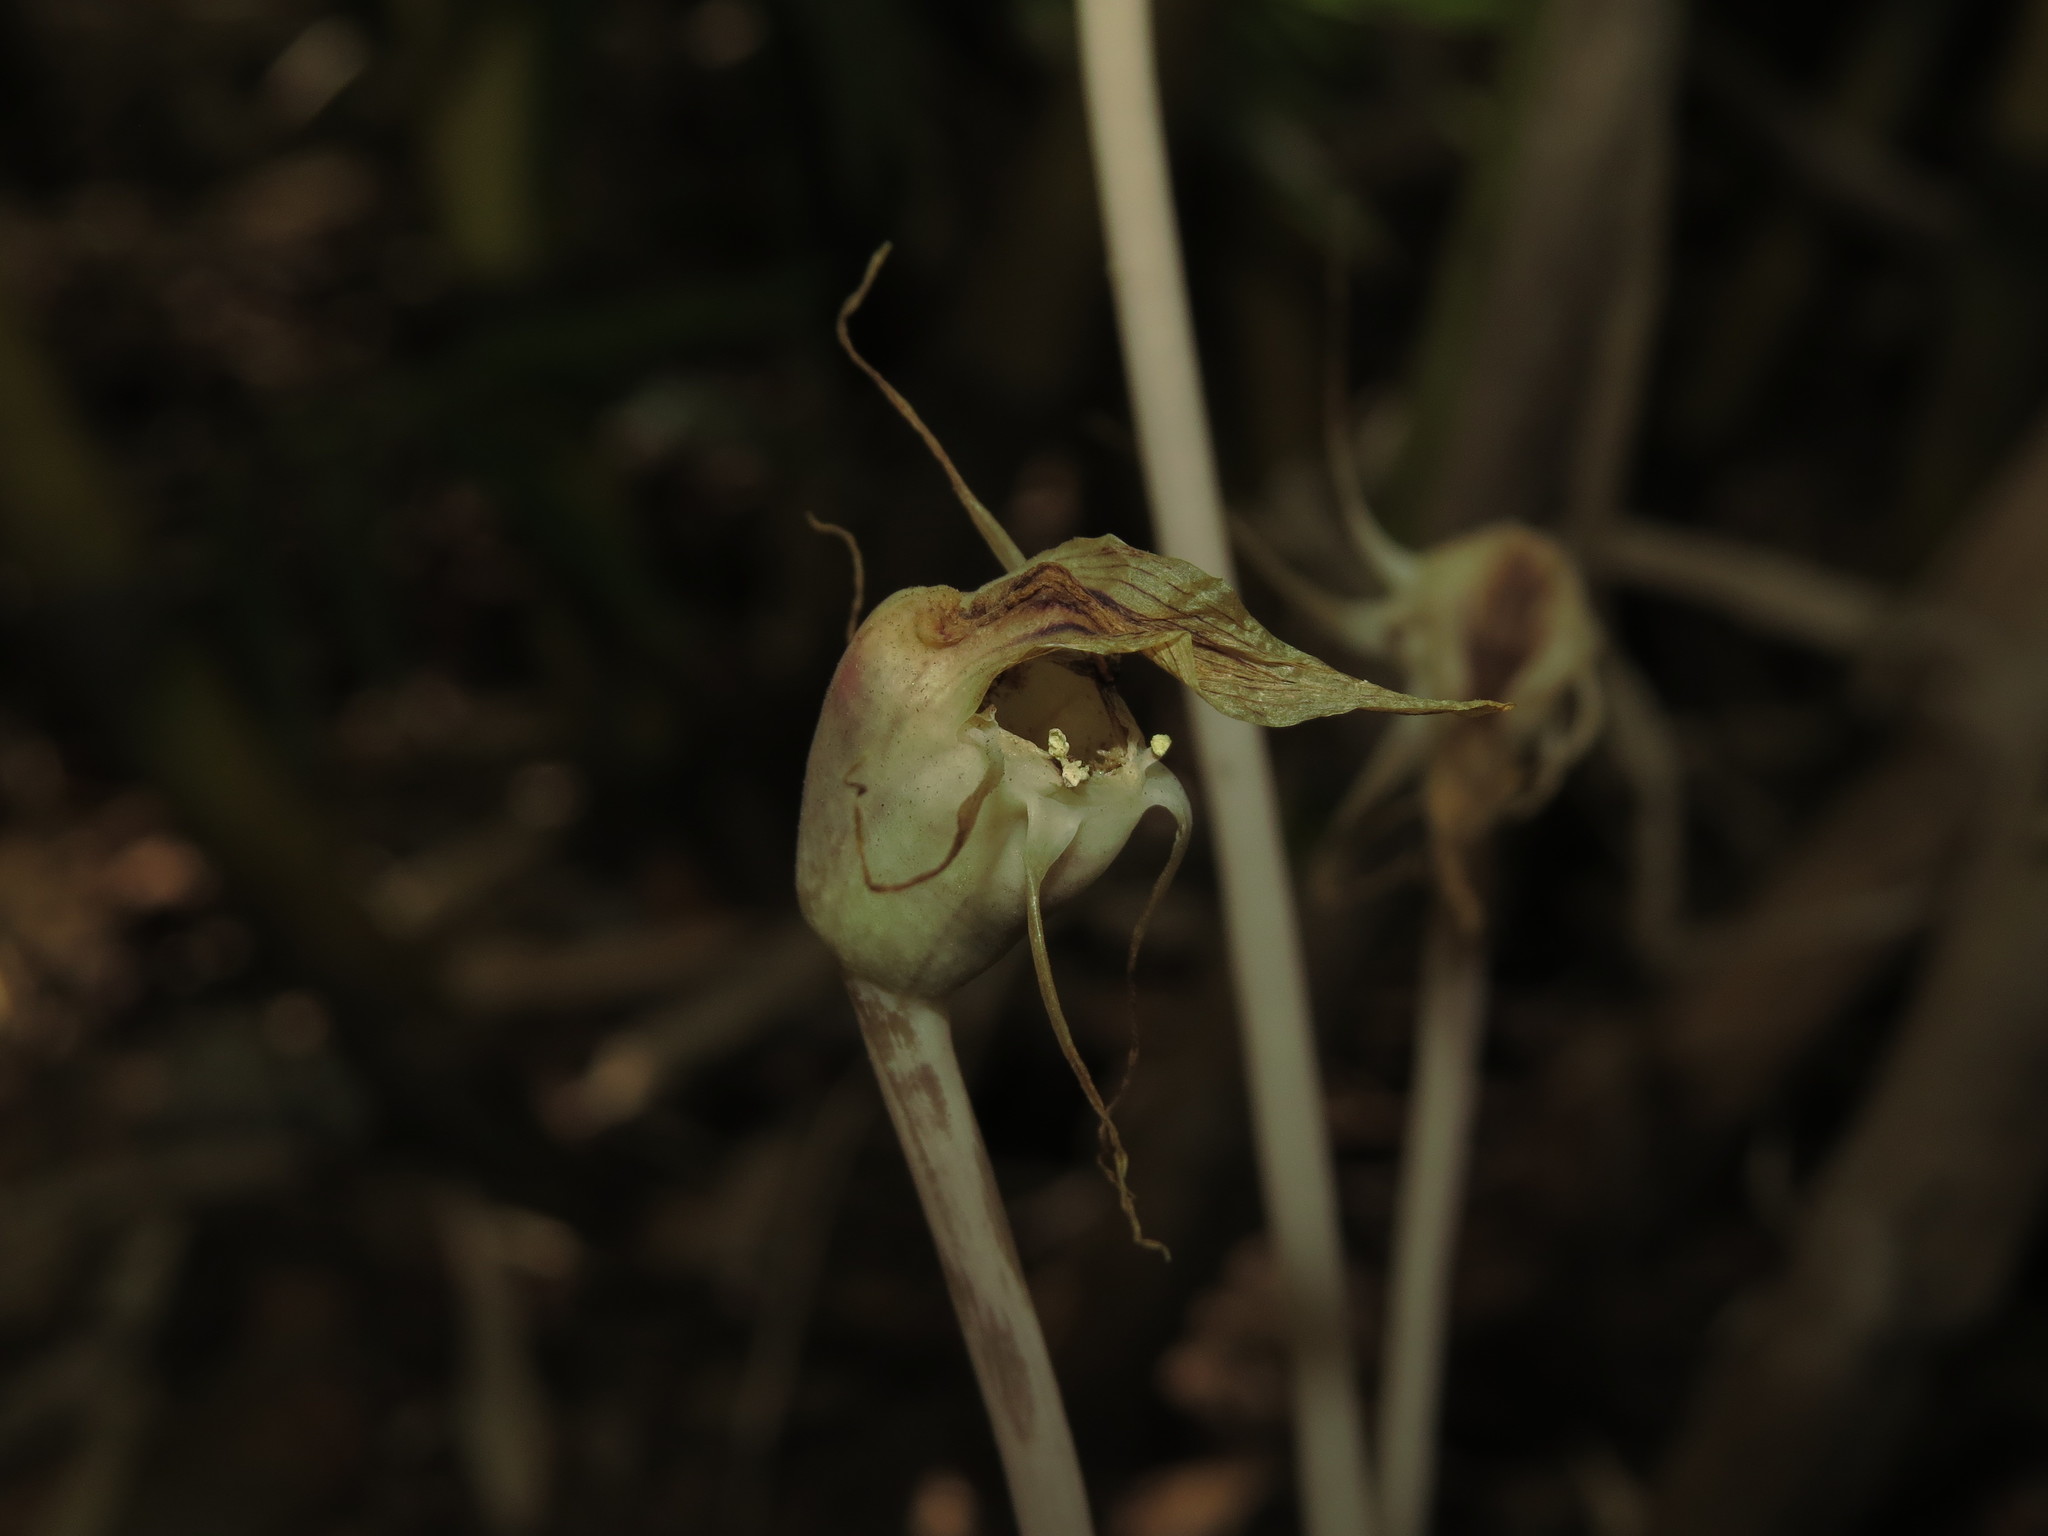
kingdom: Plantae
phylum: Tracheophyta
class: Liliopsida
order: Liliales
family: Corsiaceae
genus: Arachnitis
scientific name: Arachnitis uniflora
